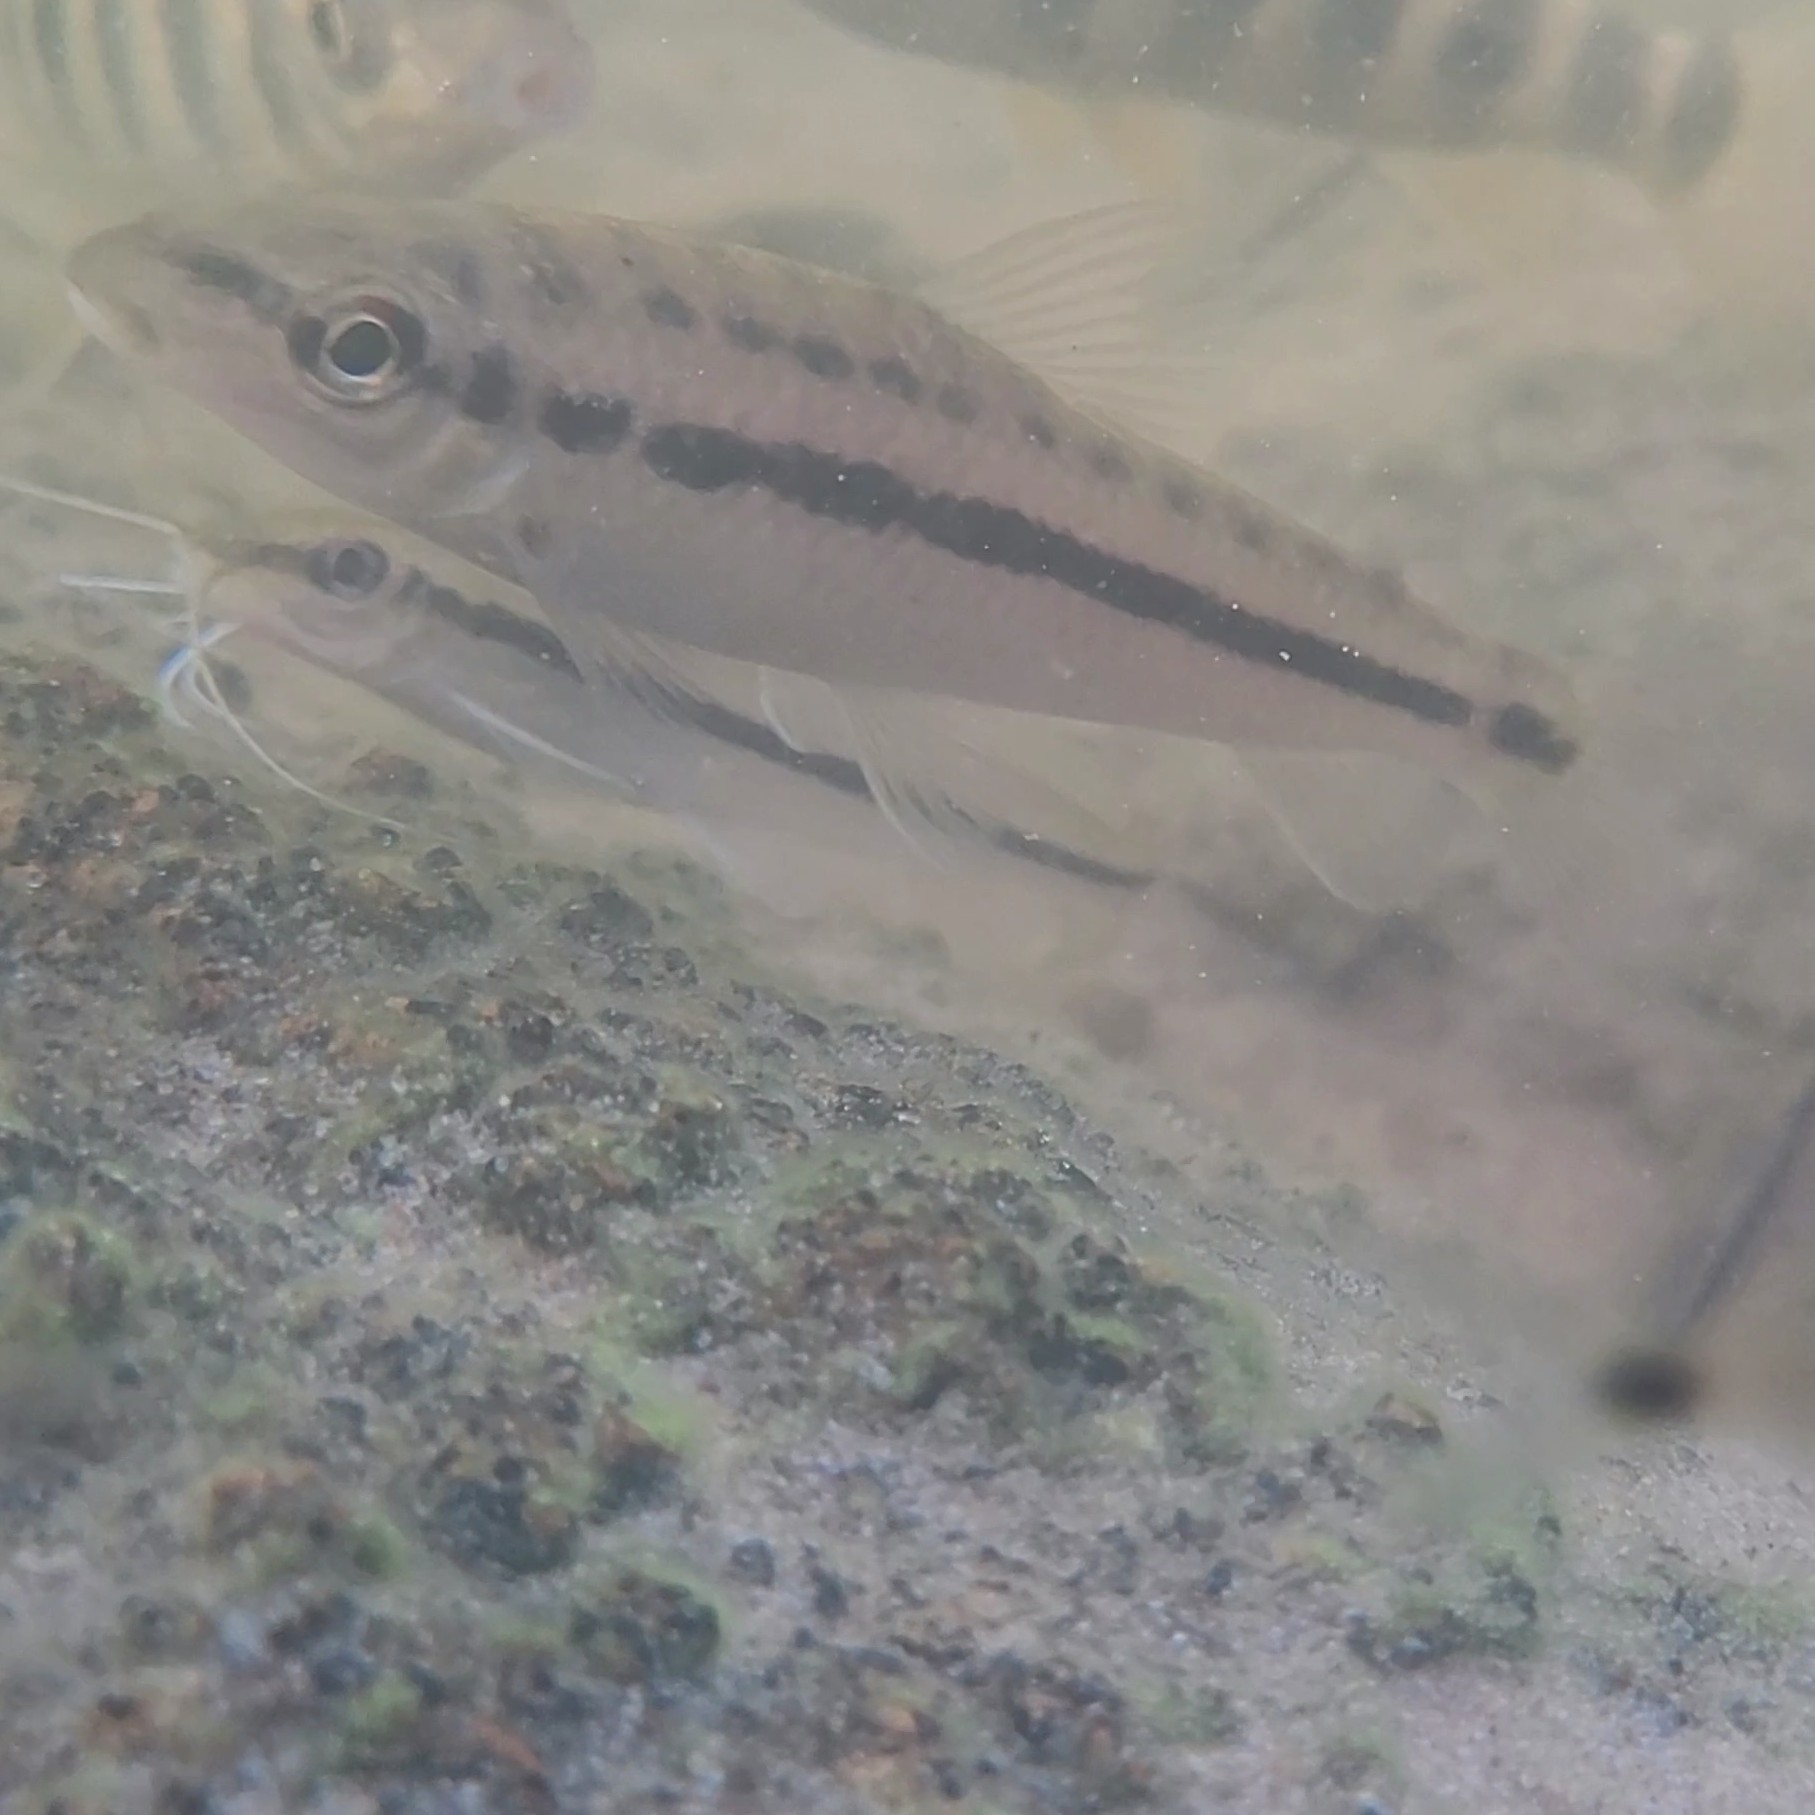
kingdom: Animalia
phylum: Chordata
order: Characiformes
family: Anostomidae
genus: Leporinus
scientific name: Leporinus sidlauskasi
